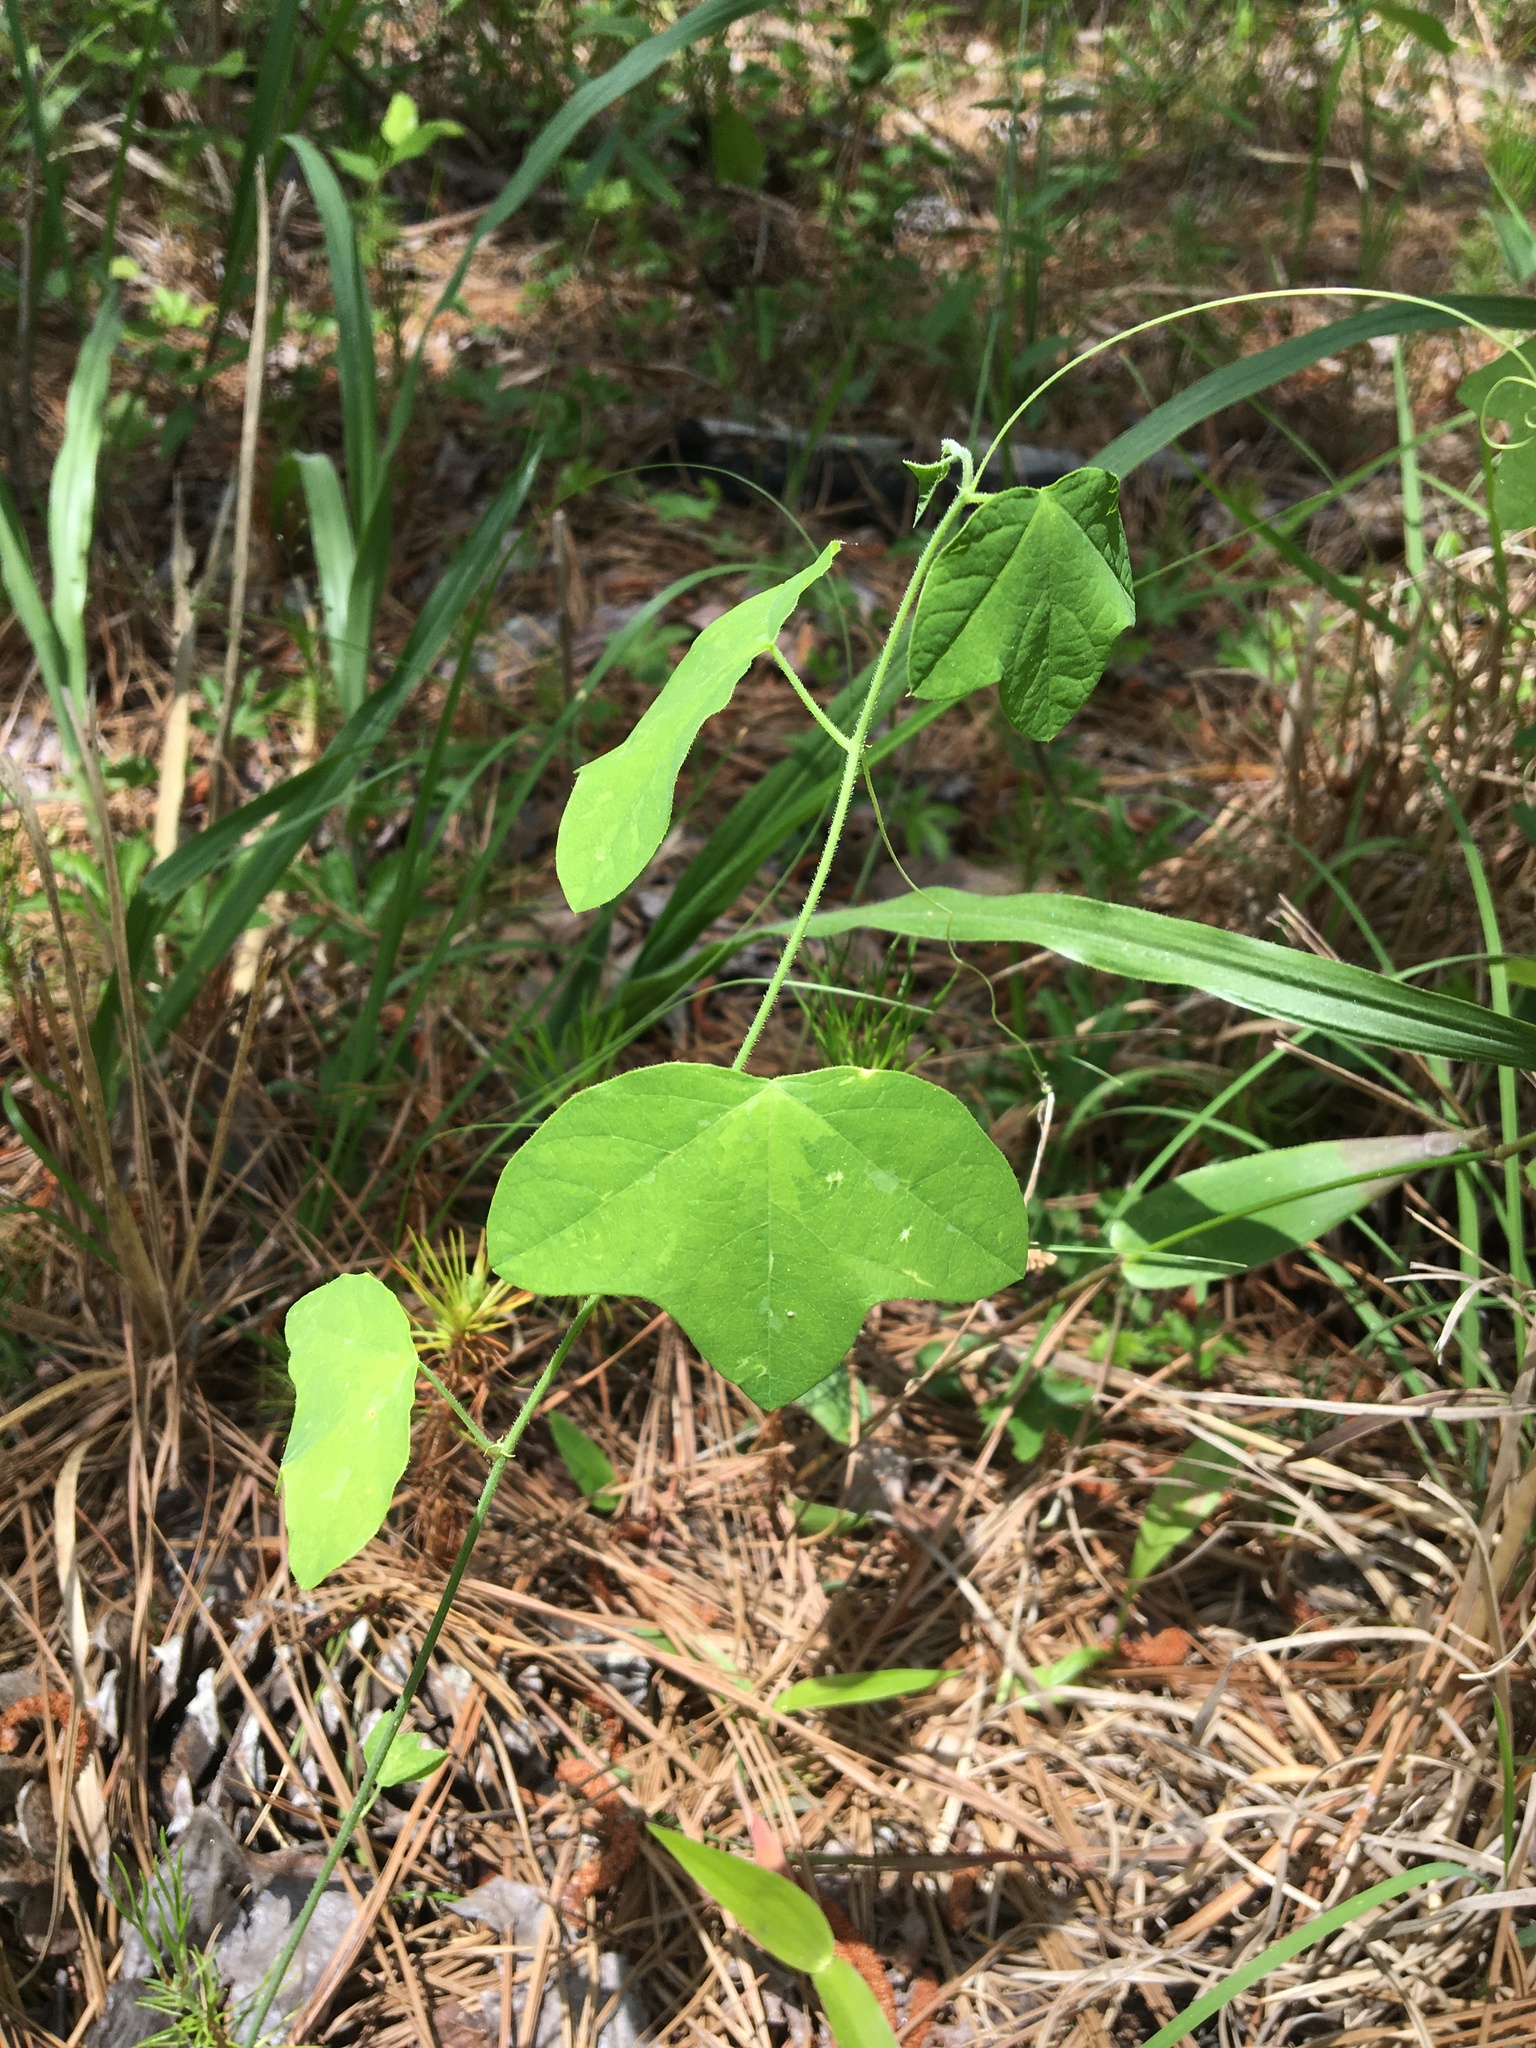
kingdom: Plantae
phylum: Tracheophyta
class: Magnoliopsida
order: Malpighiales
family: Passifloraceae
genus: Passiflora
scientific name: Passiflora lutea
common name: Yellow passionflower
